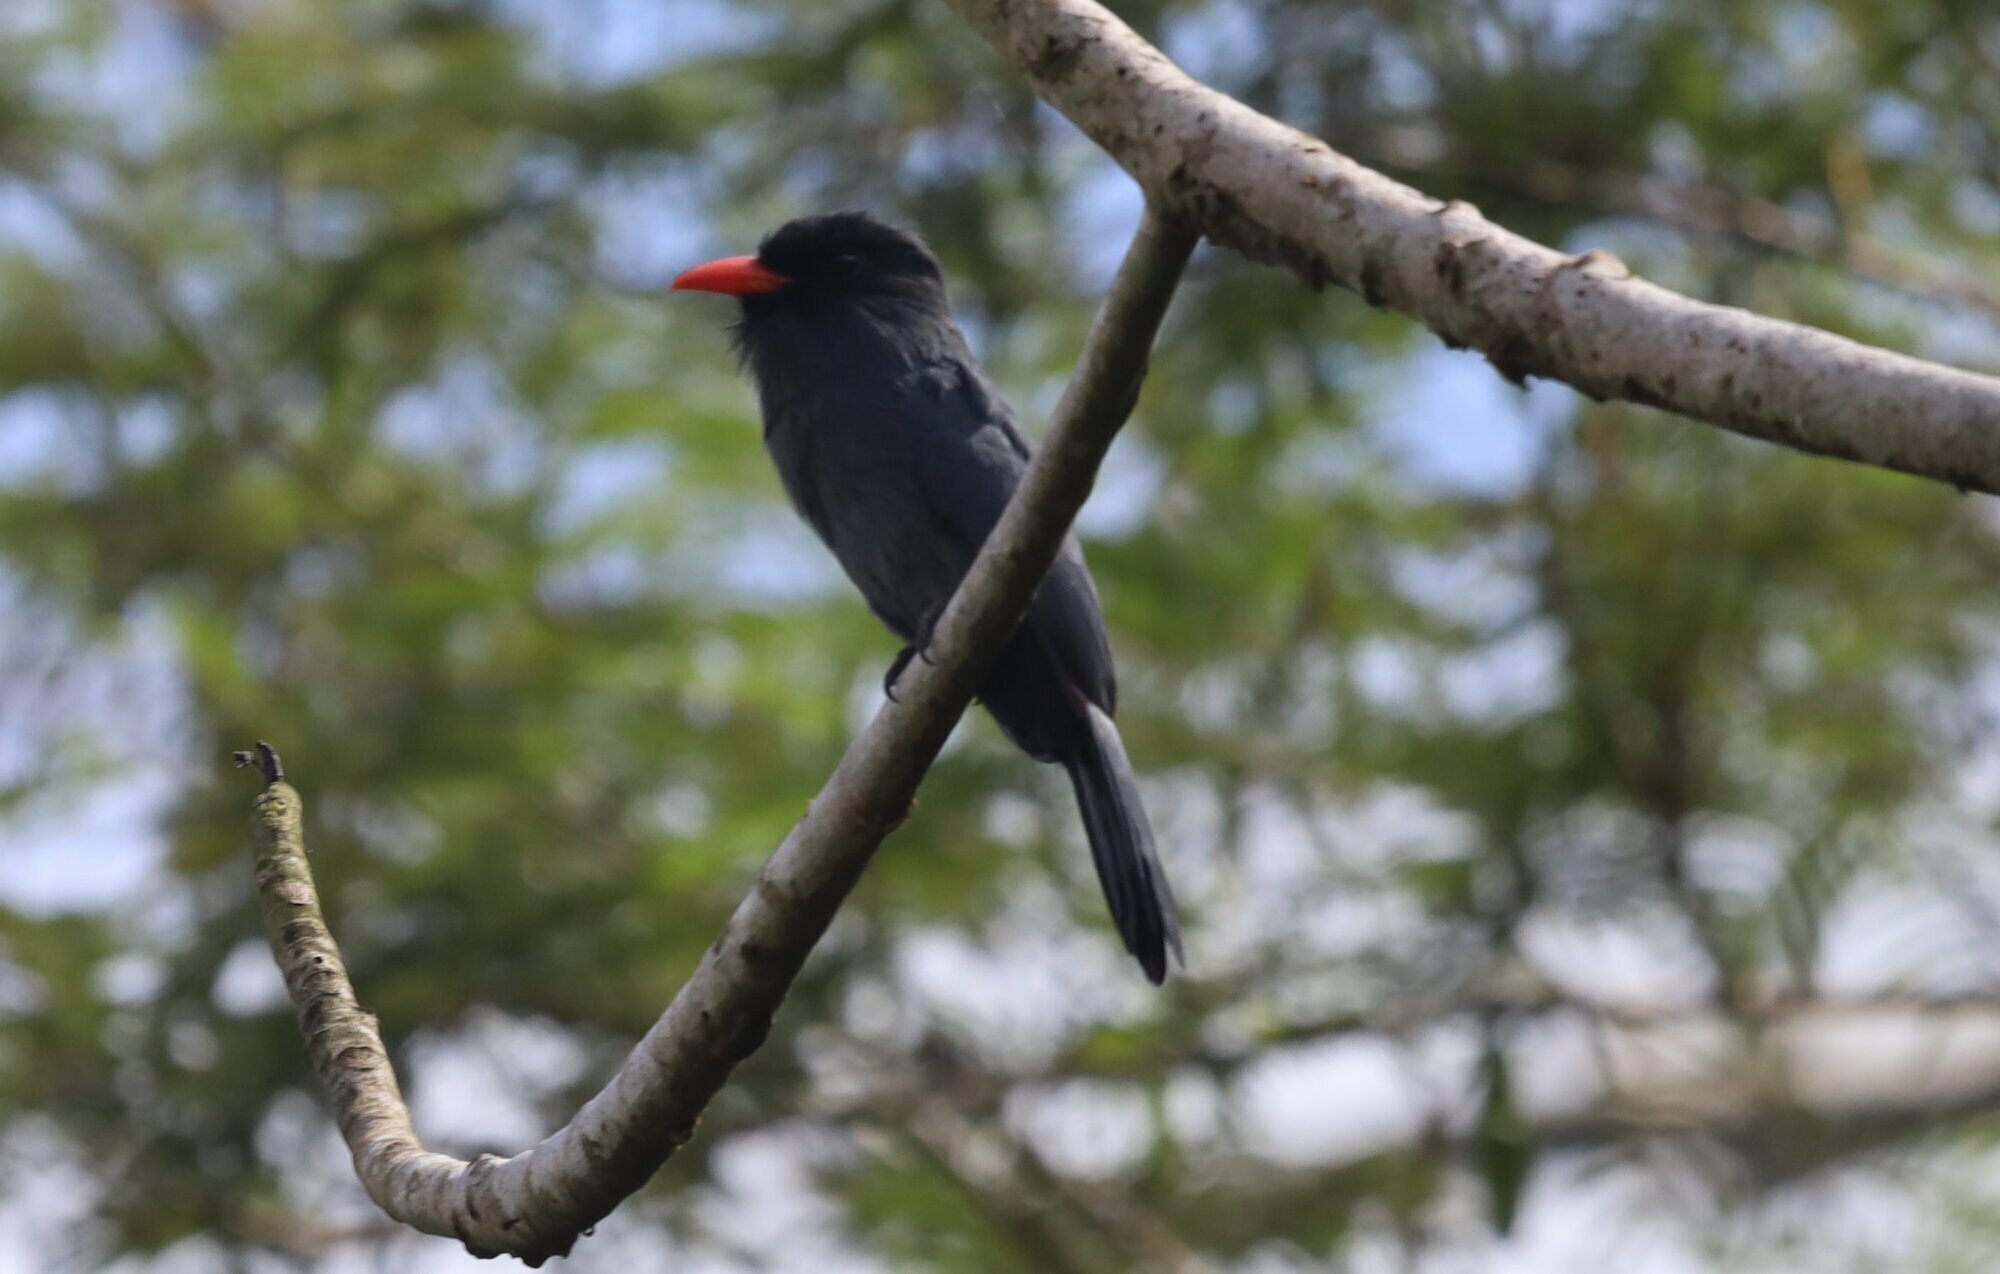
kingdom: Animalia
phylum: Chordata
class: Aves
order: Piciformes
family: Bucconidae
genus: Monasa
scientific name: Monasa nigrifrons
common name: Black-fronted nunbird
